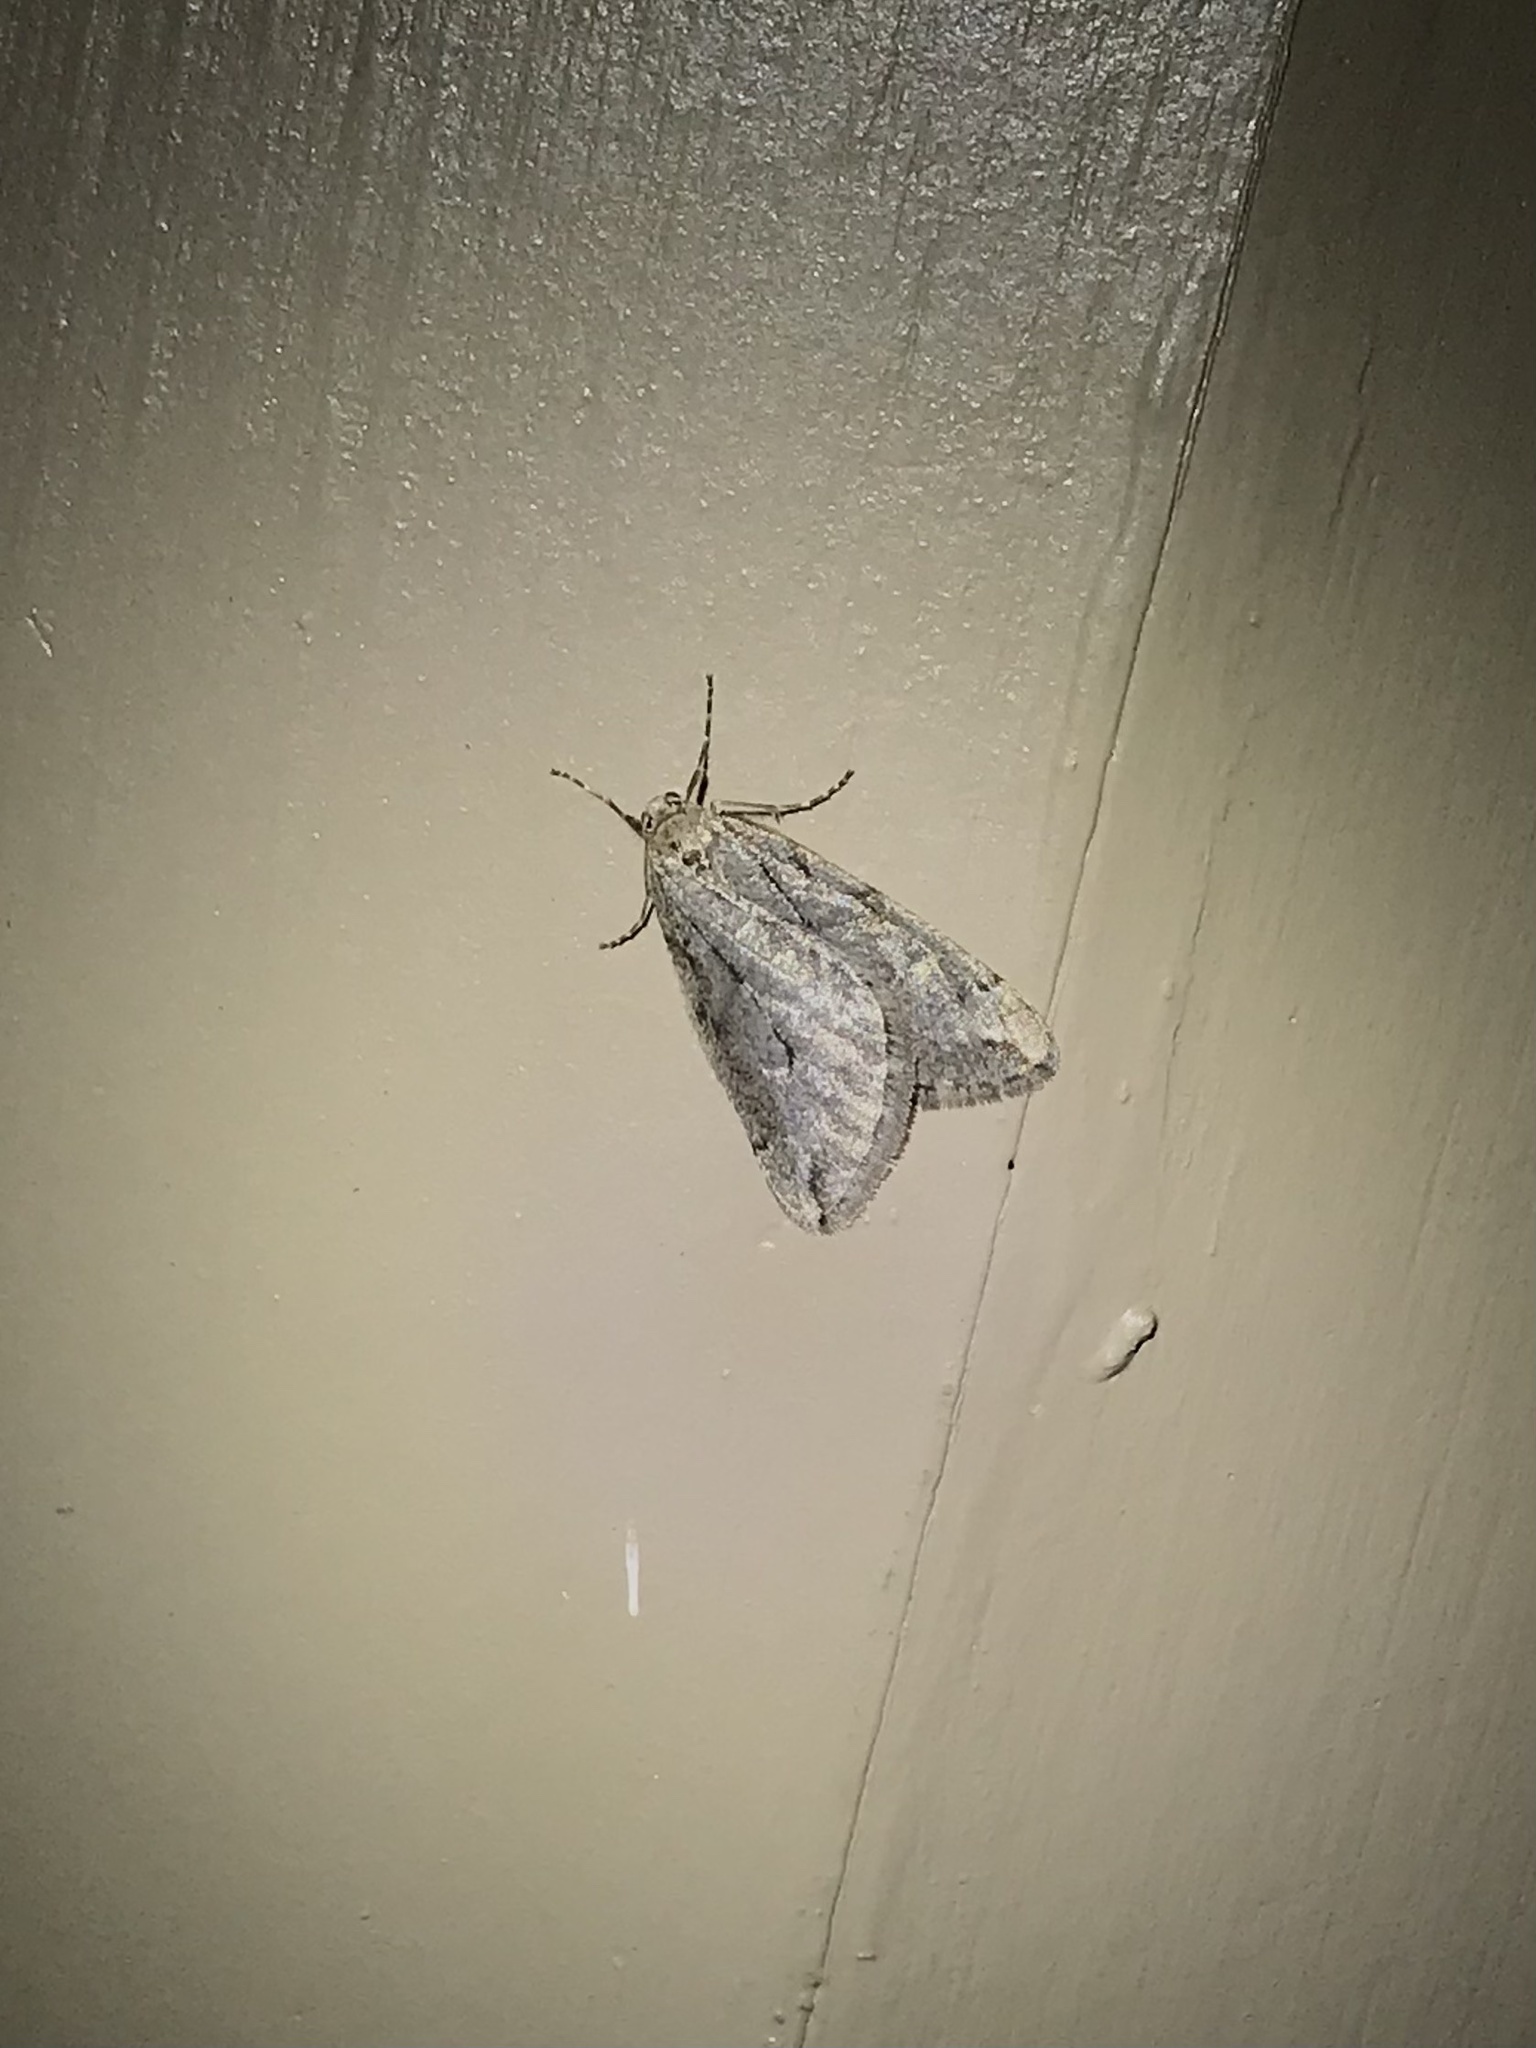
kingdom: Animalia
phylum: Arthropoda
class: Insecta
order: Lepidoptera
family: Geometridae
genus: Paleacrita
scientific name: Paleacrita vernata
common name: Spring cankerworm
